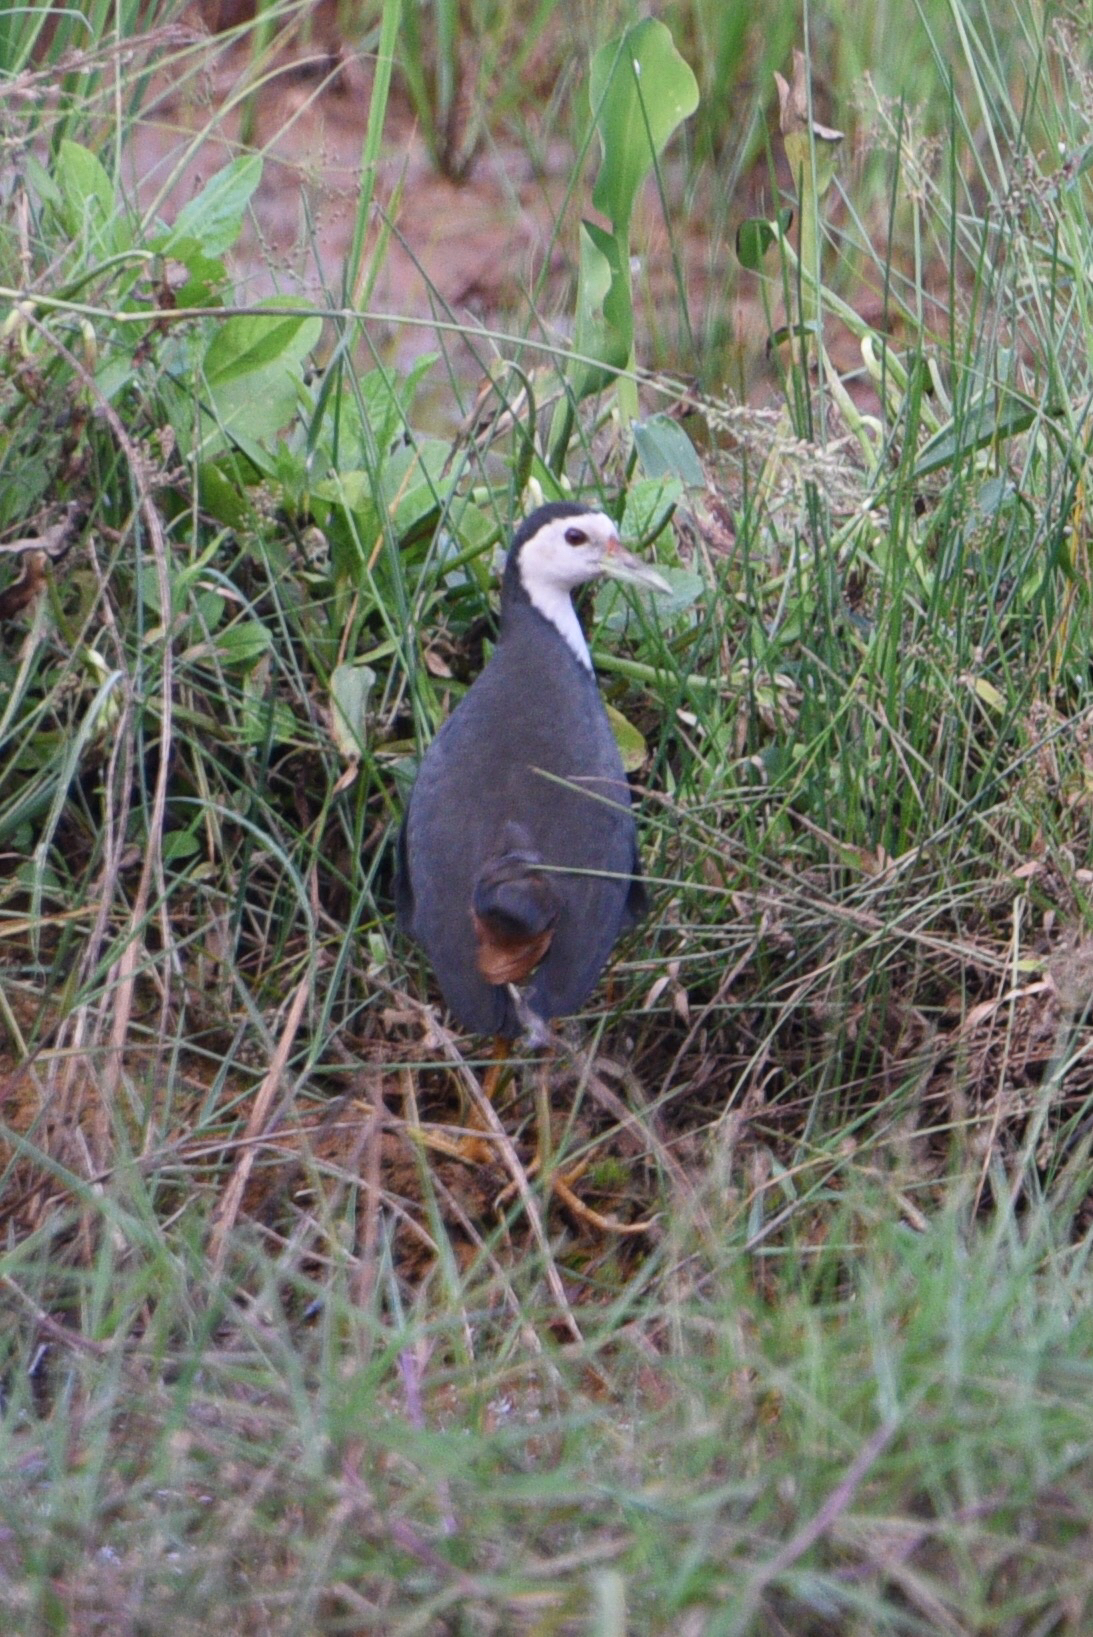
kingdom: Animalia
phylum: Chordata
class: Aves
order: Gruiformes
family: Rallidae
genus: Amaurornis
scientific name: Amaurornis phoenicurus
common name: White-breasted waterhen
